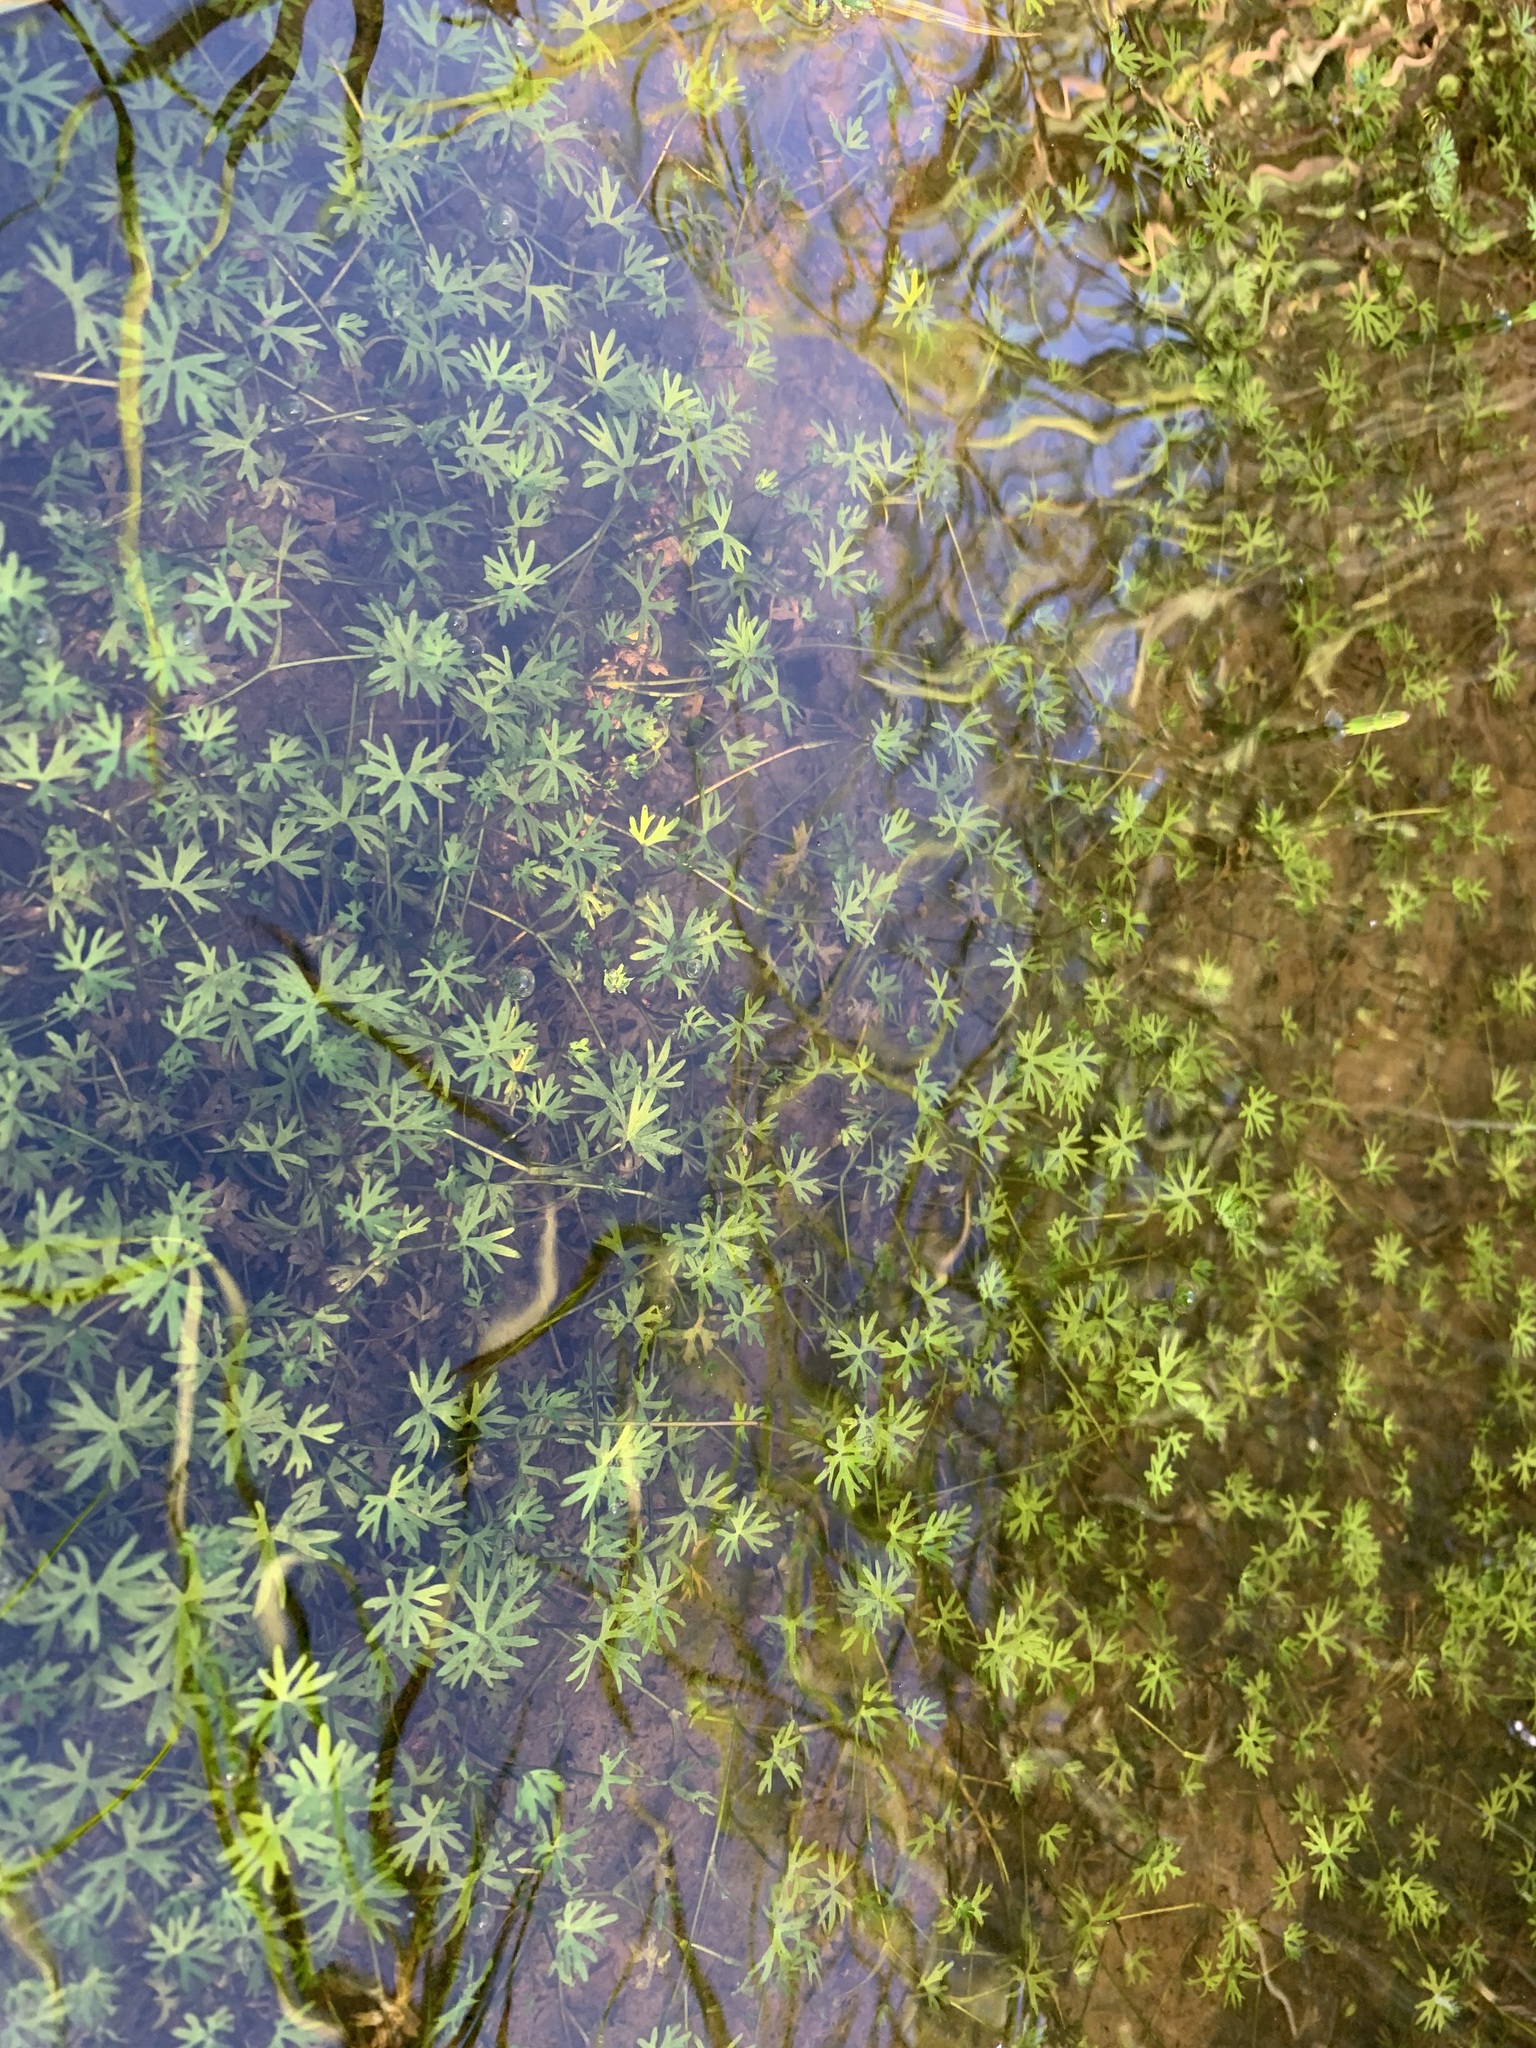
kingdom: Plantae
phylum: Tracheophyta
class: Magnoliopsida
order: Ranunculales
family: Ranunculaceae
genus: Ranunculus
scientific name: Ranunculus gmelinii
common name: Gmelin's buttercup
